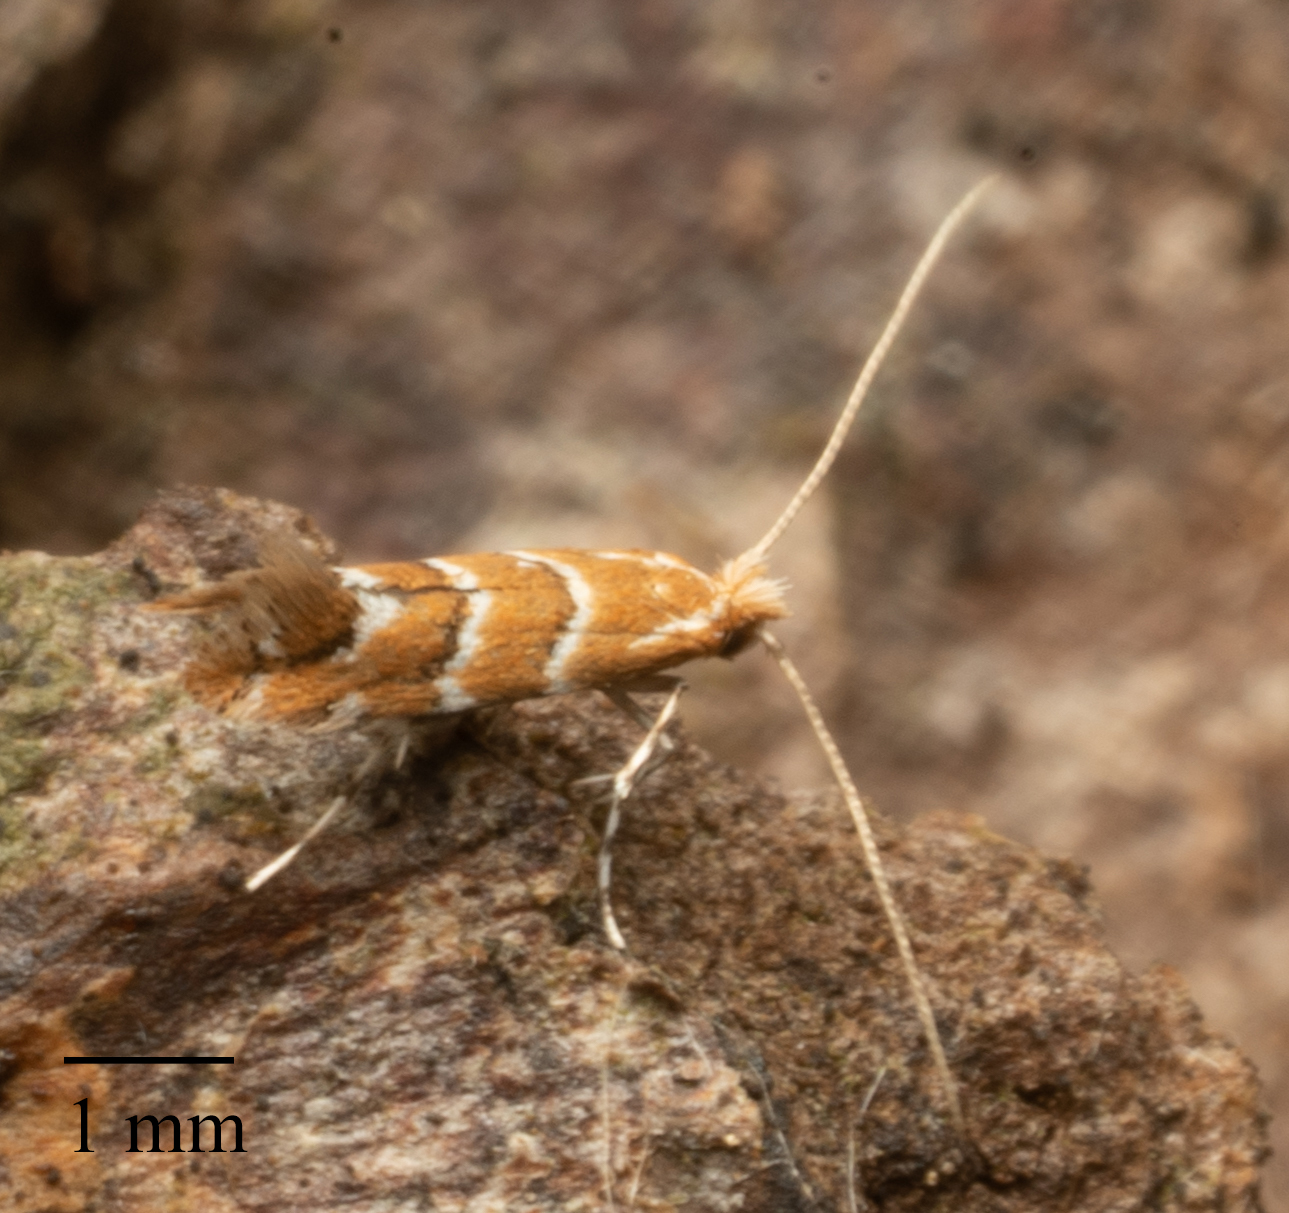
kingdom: Animalia
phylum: Arthropoda
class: Insecta
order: Lepidoptera
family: Gracillariidae
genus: Cameraria
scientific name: Cameraria ohridella
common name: Horse-chestnut leaf-miner
